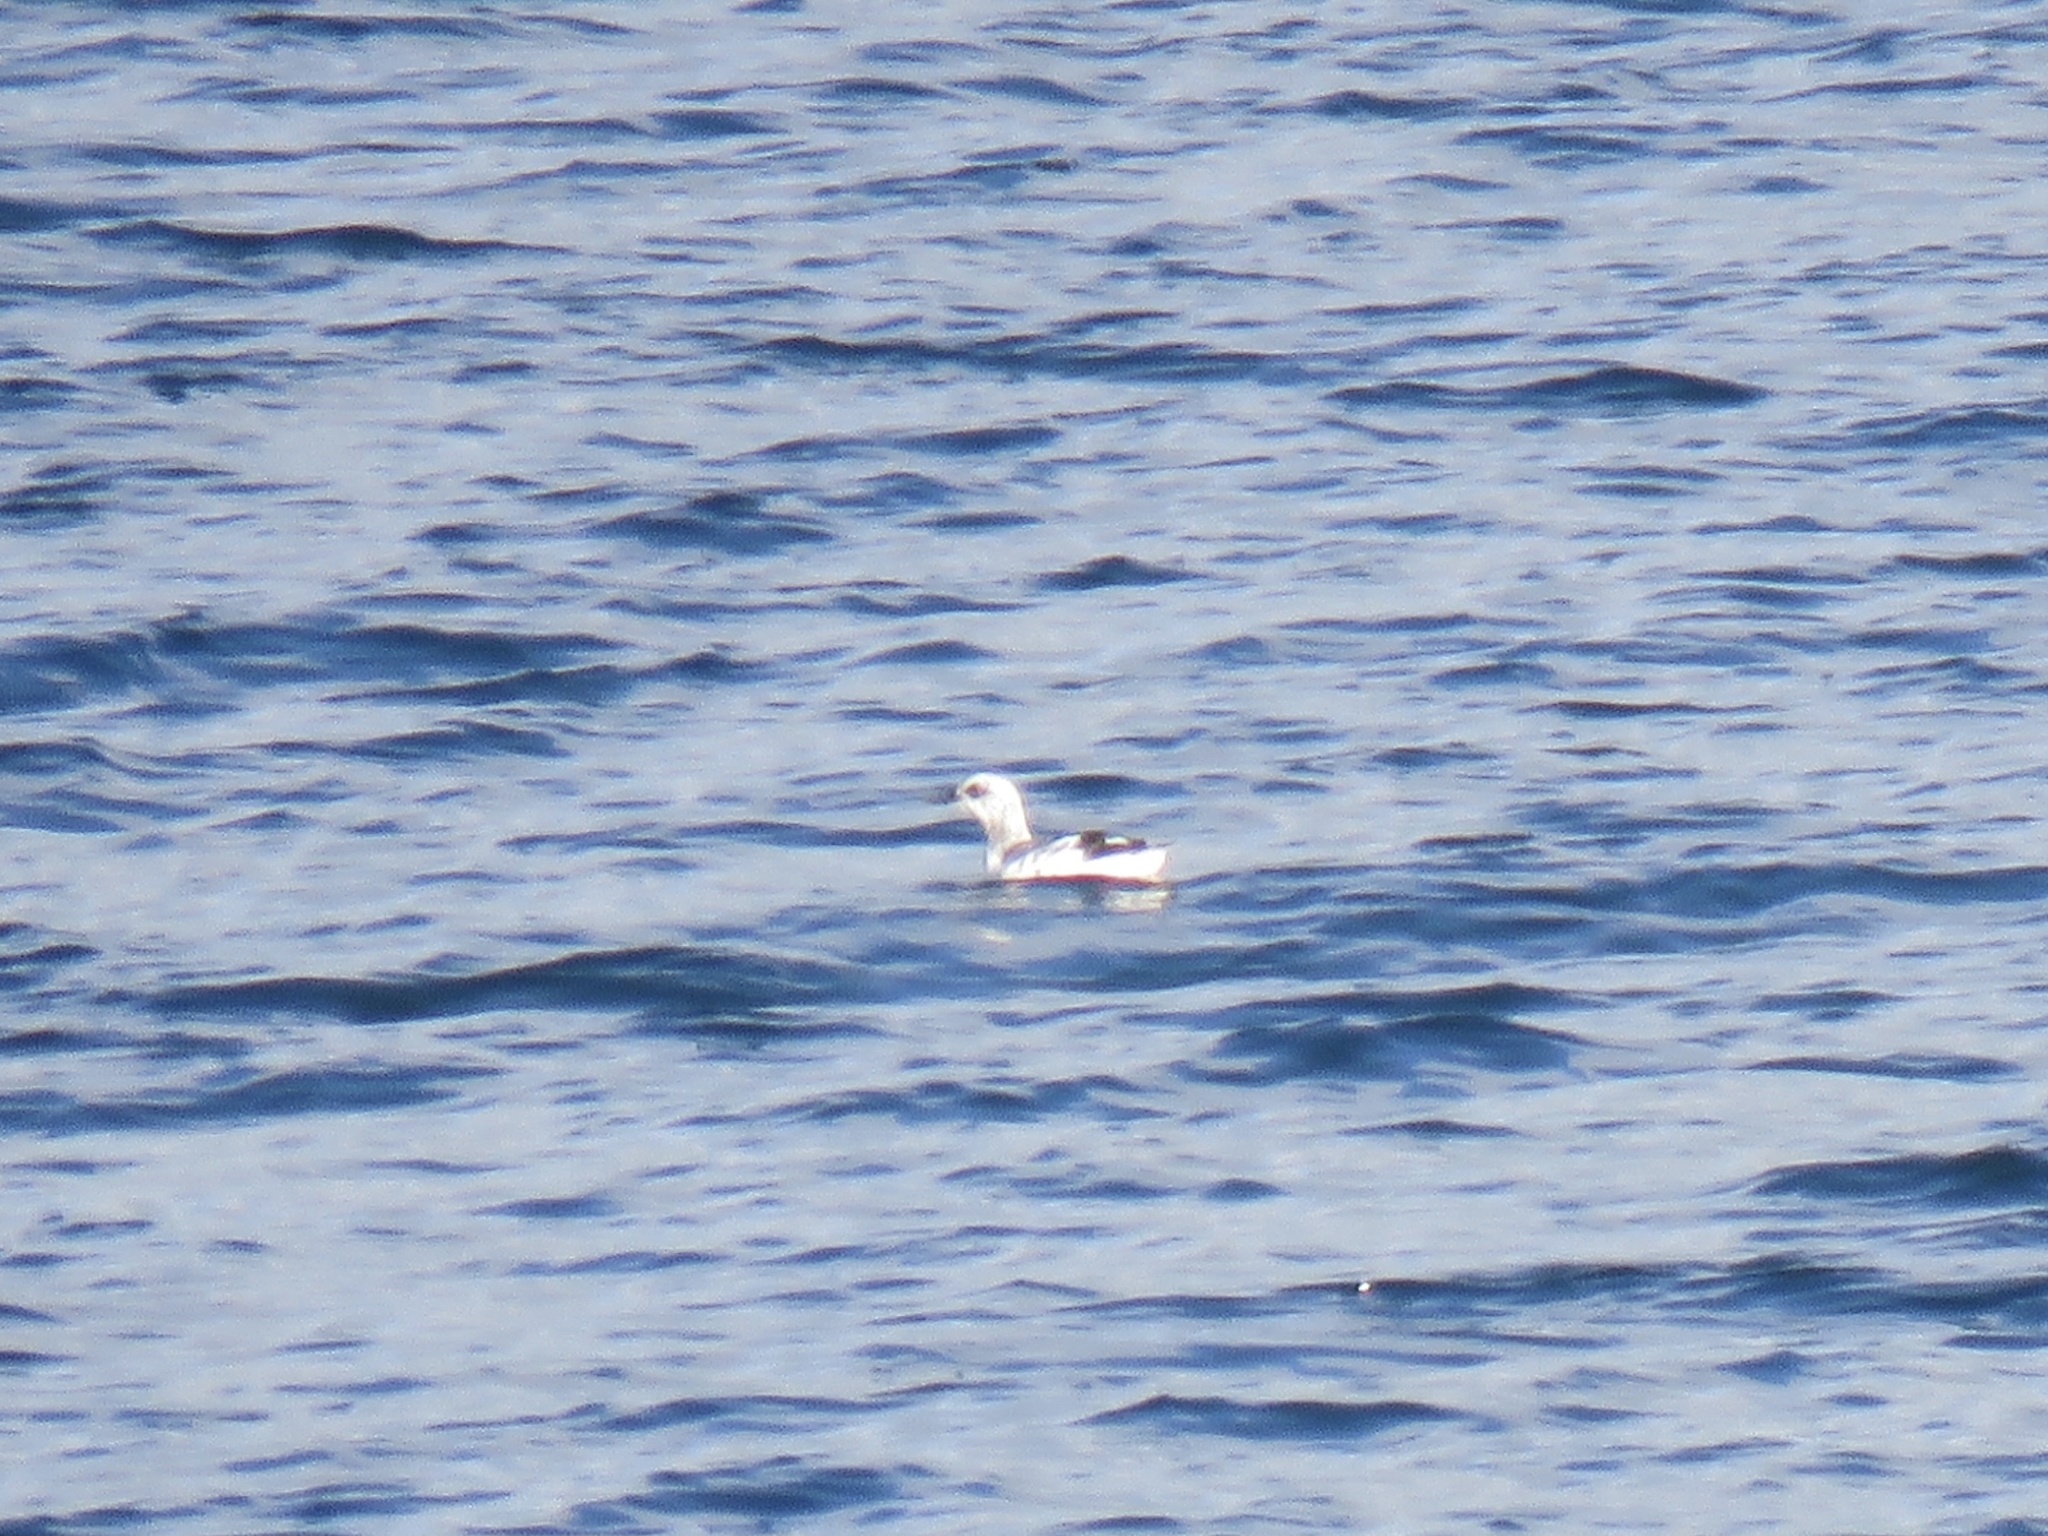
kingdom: Animalia
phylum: Chordata
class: Aves
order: Charadriiformes
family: Alcidae
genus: Cepphus
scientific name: Cepphus columba
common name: Pigeon guillemot
